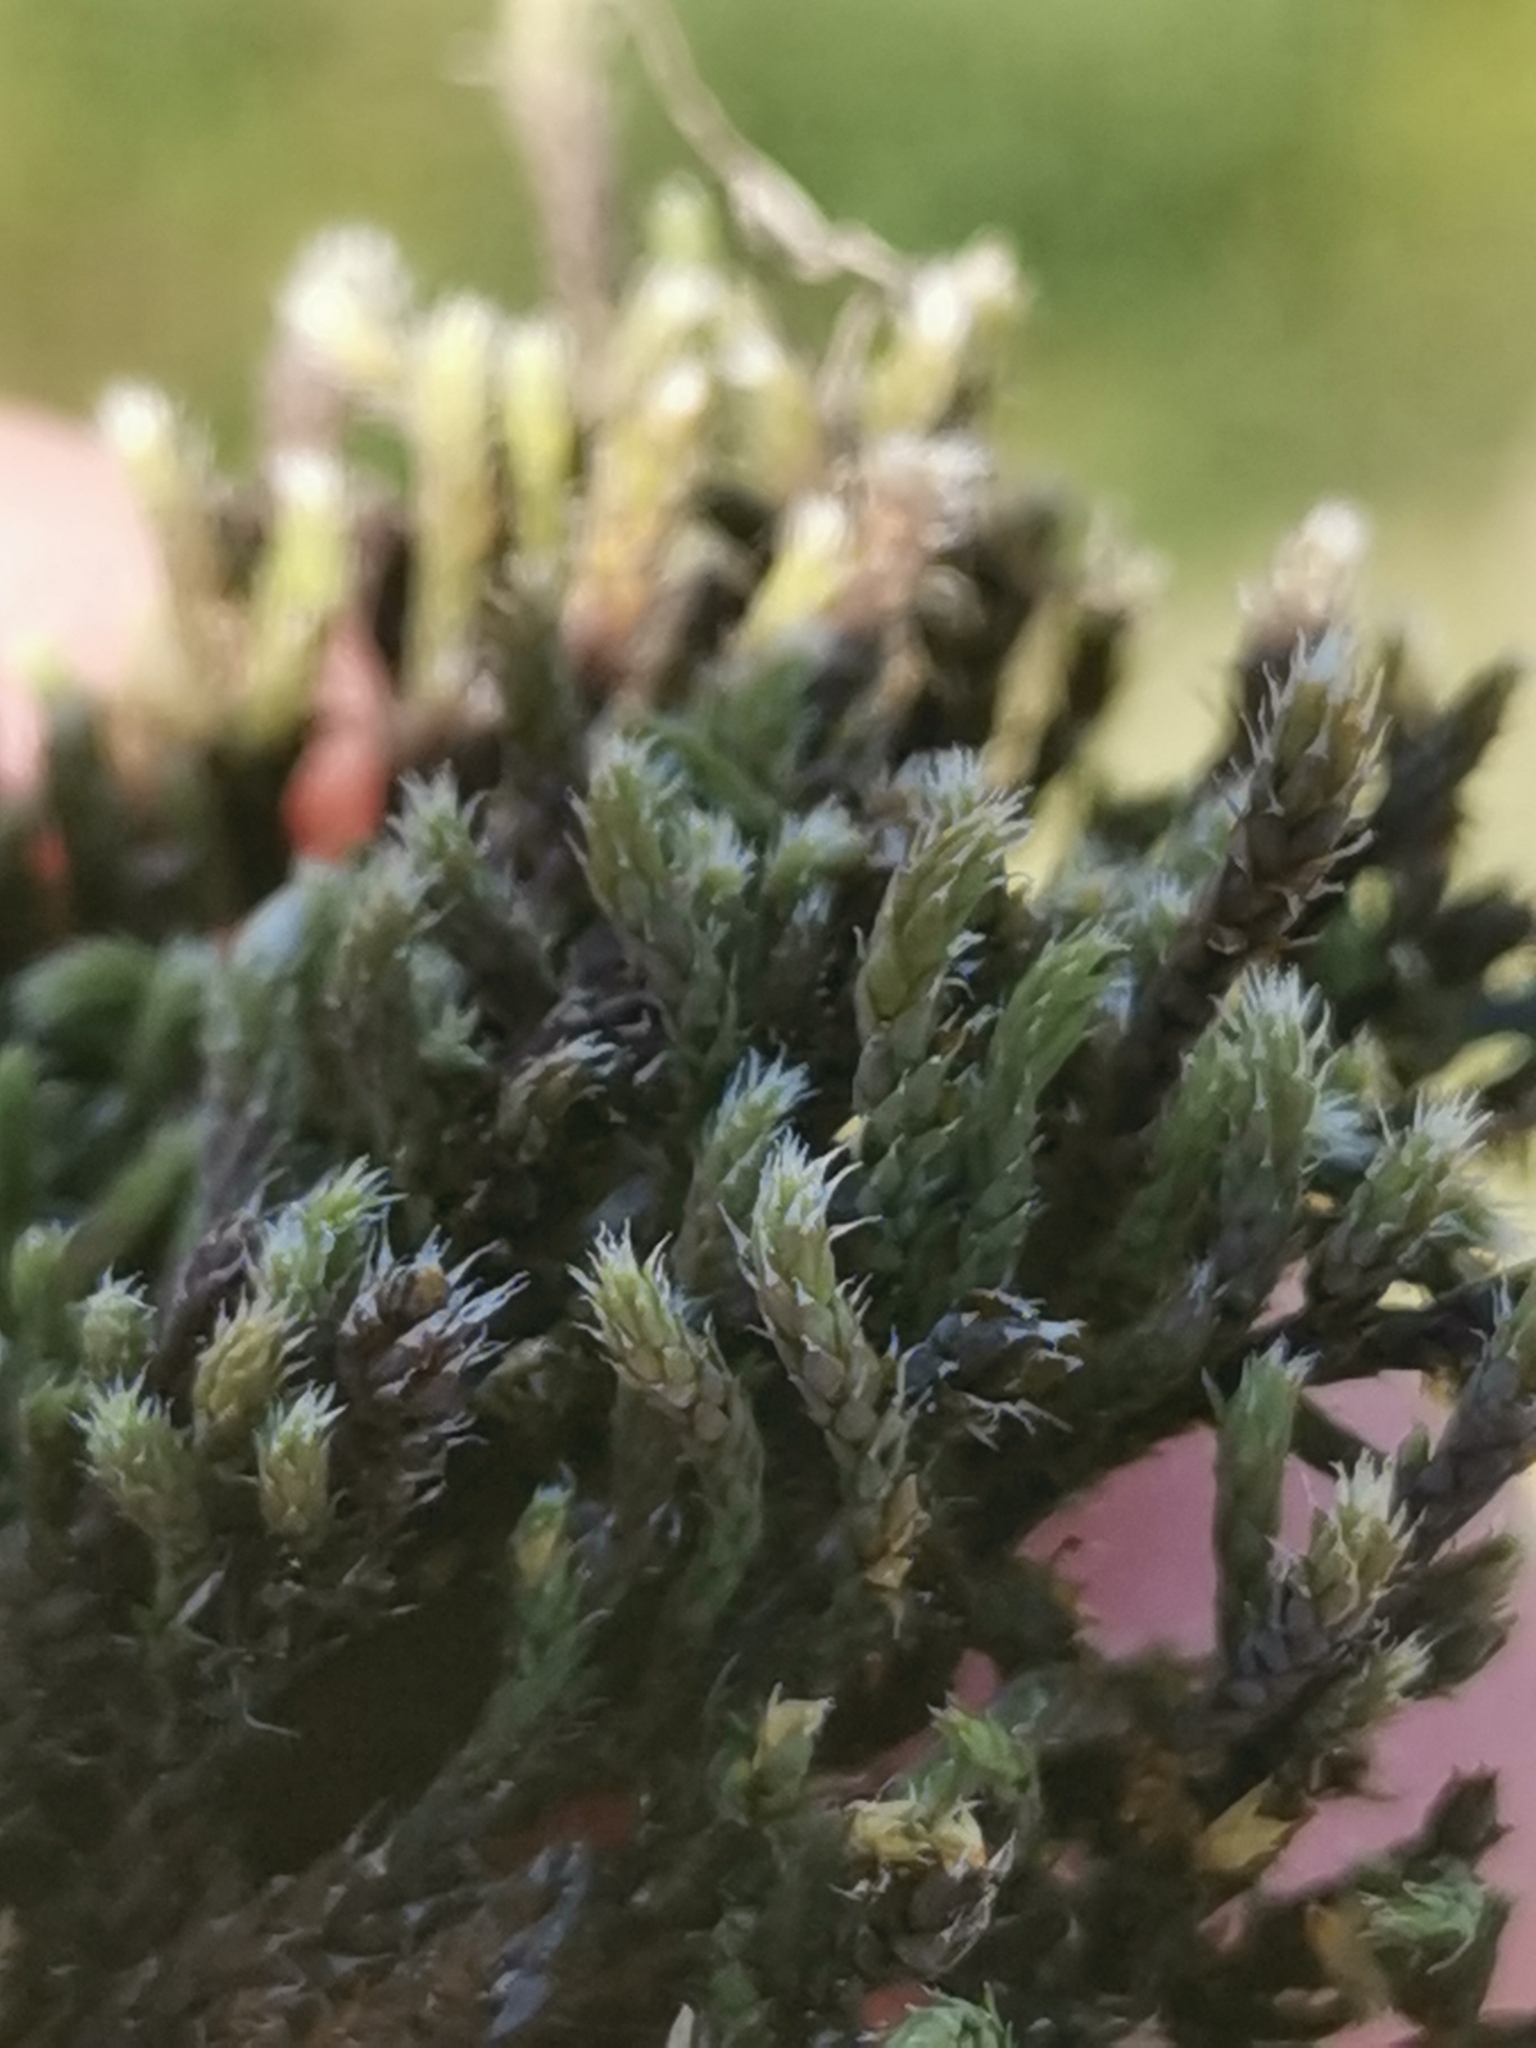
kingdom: Plantae
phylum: Bryophyta
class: Bryopsida
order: Hedwigiales
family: Hedwigiaceae
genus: Hedwigia
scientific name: Hedwigia ciliata
